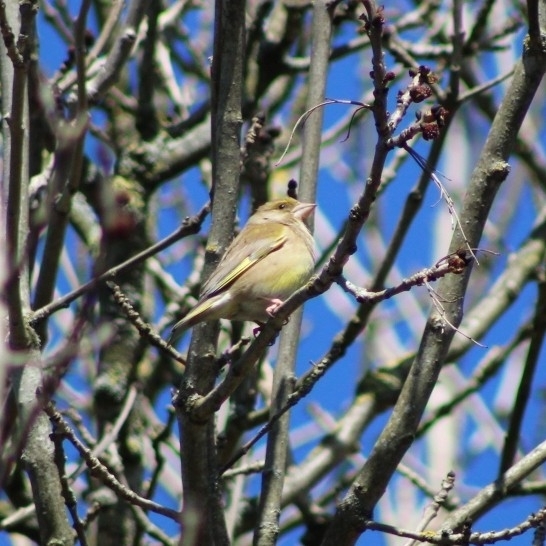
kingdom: Plantae
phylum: Tracheophyta
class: Liliopsida
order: Poales
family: Poaceae
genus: Chloris
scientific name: Chloris chloris
